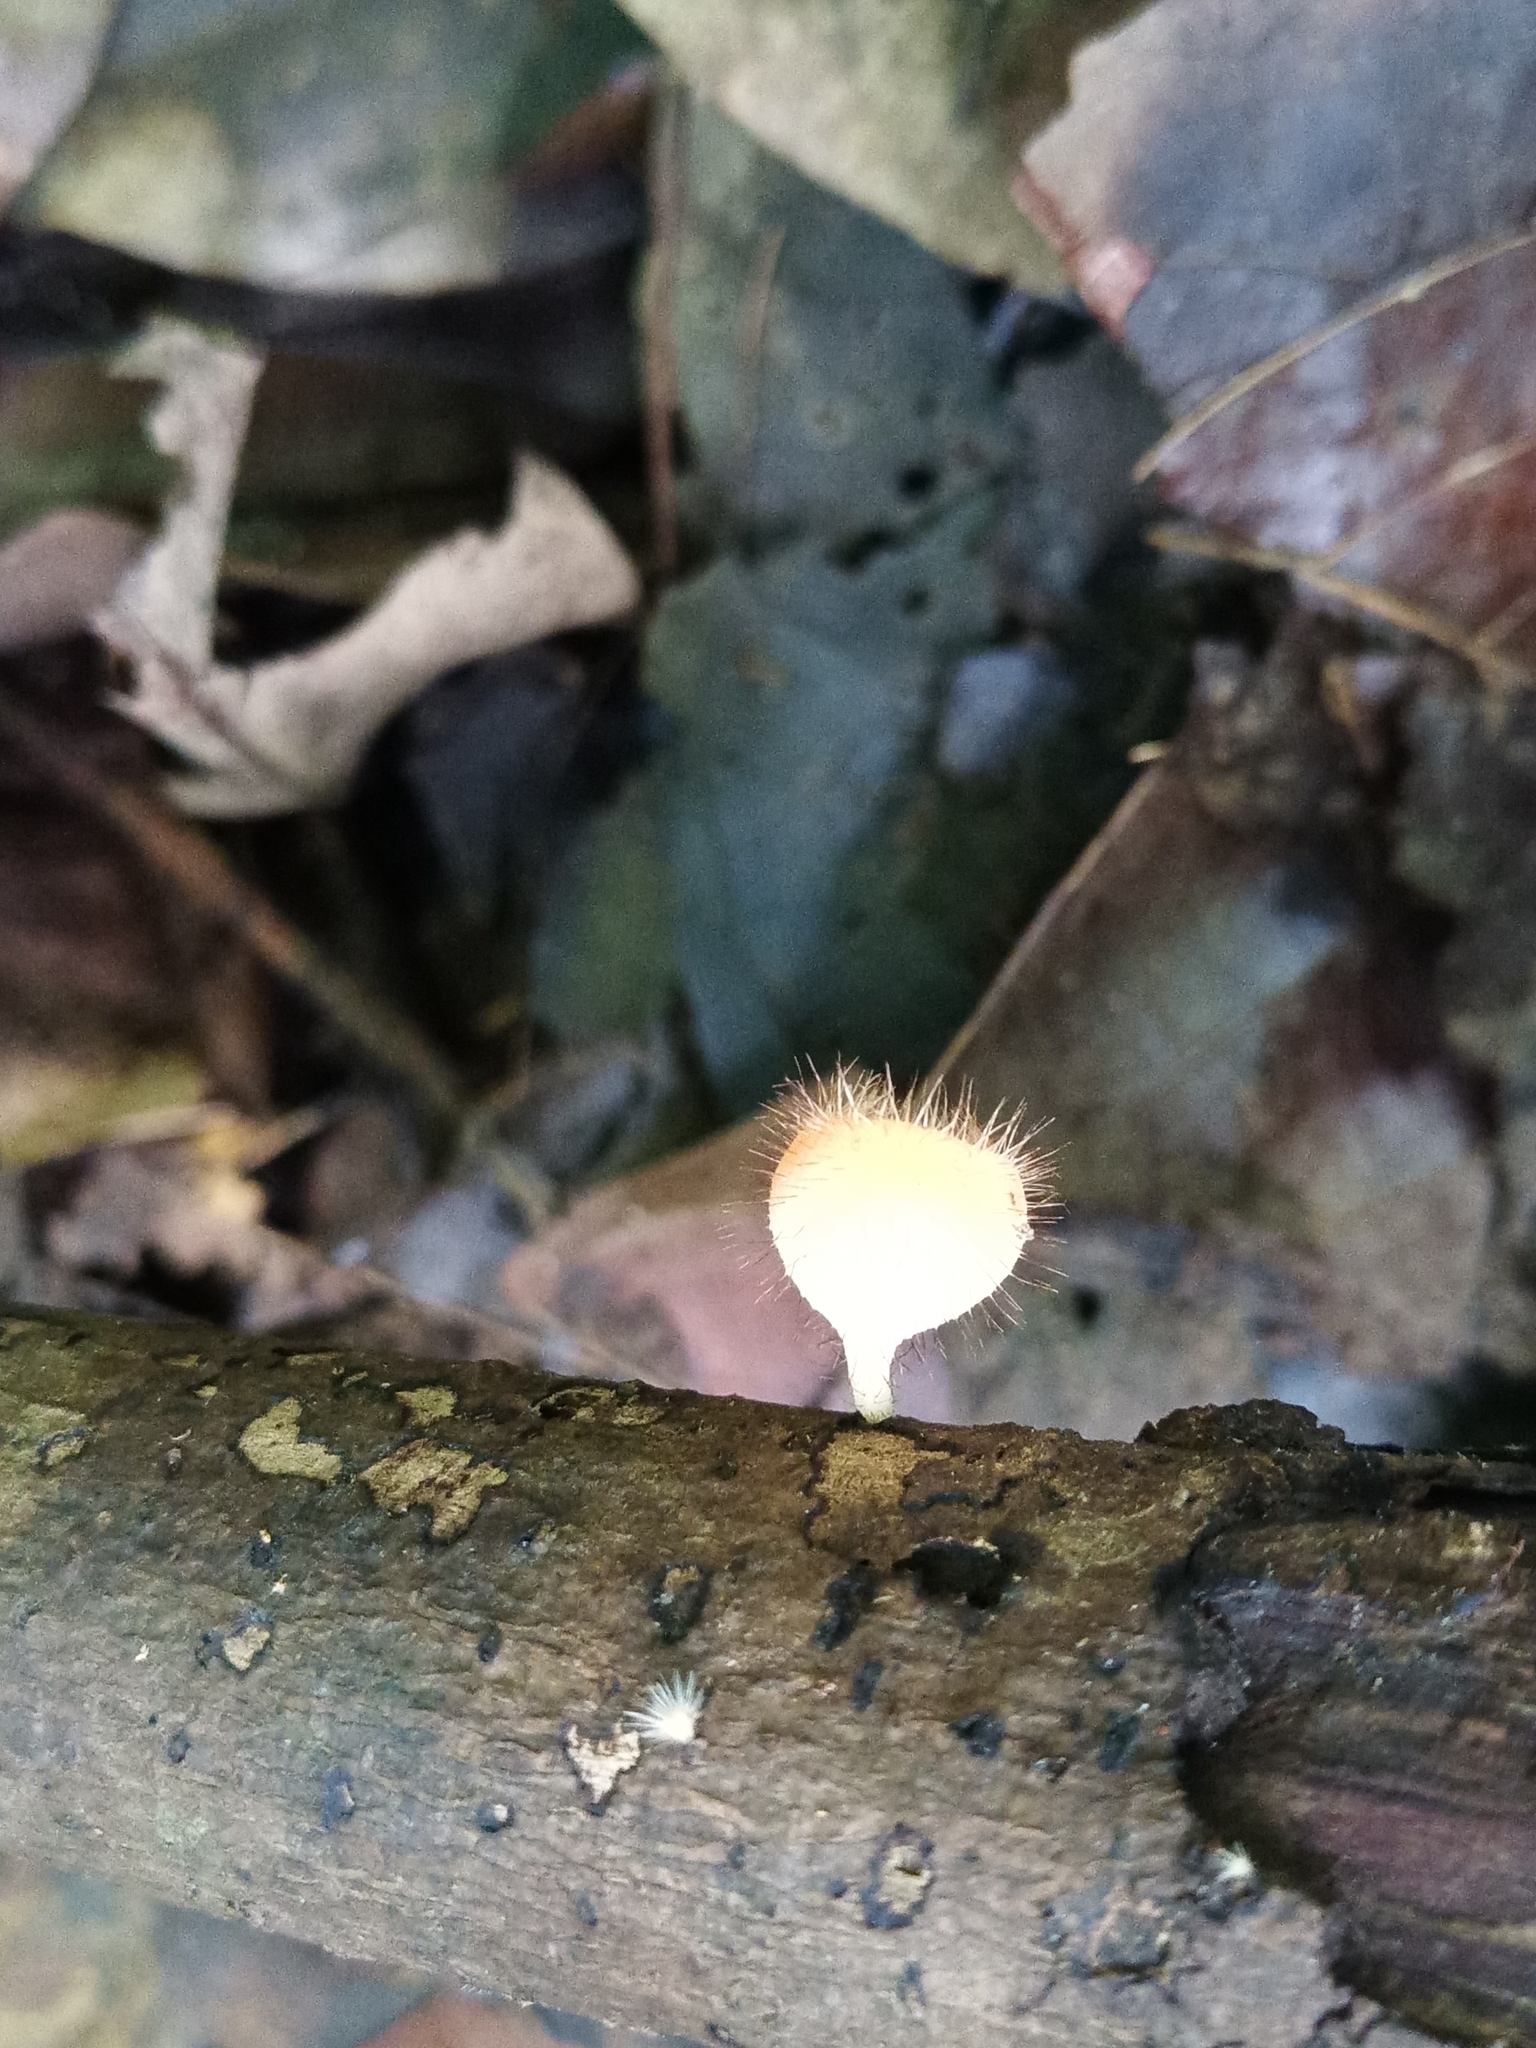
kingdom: Fungi
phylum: Ascomycota
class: Pezizomycetes
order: Pezizales
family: Sarcoscyphaceae
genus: Cookeina
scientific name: Cookeina tricholoma
